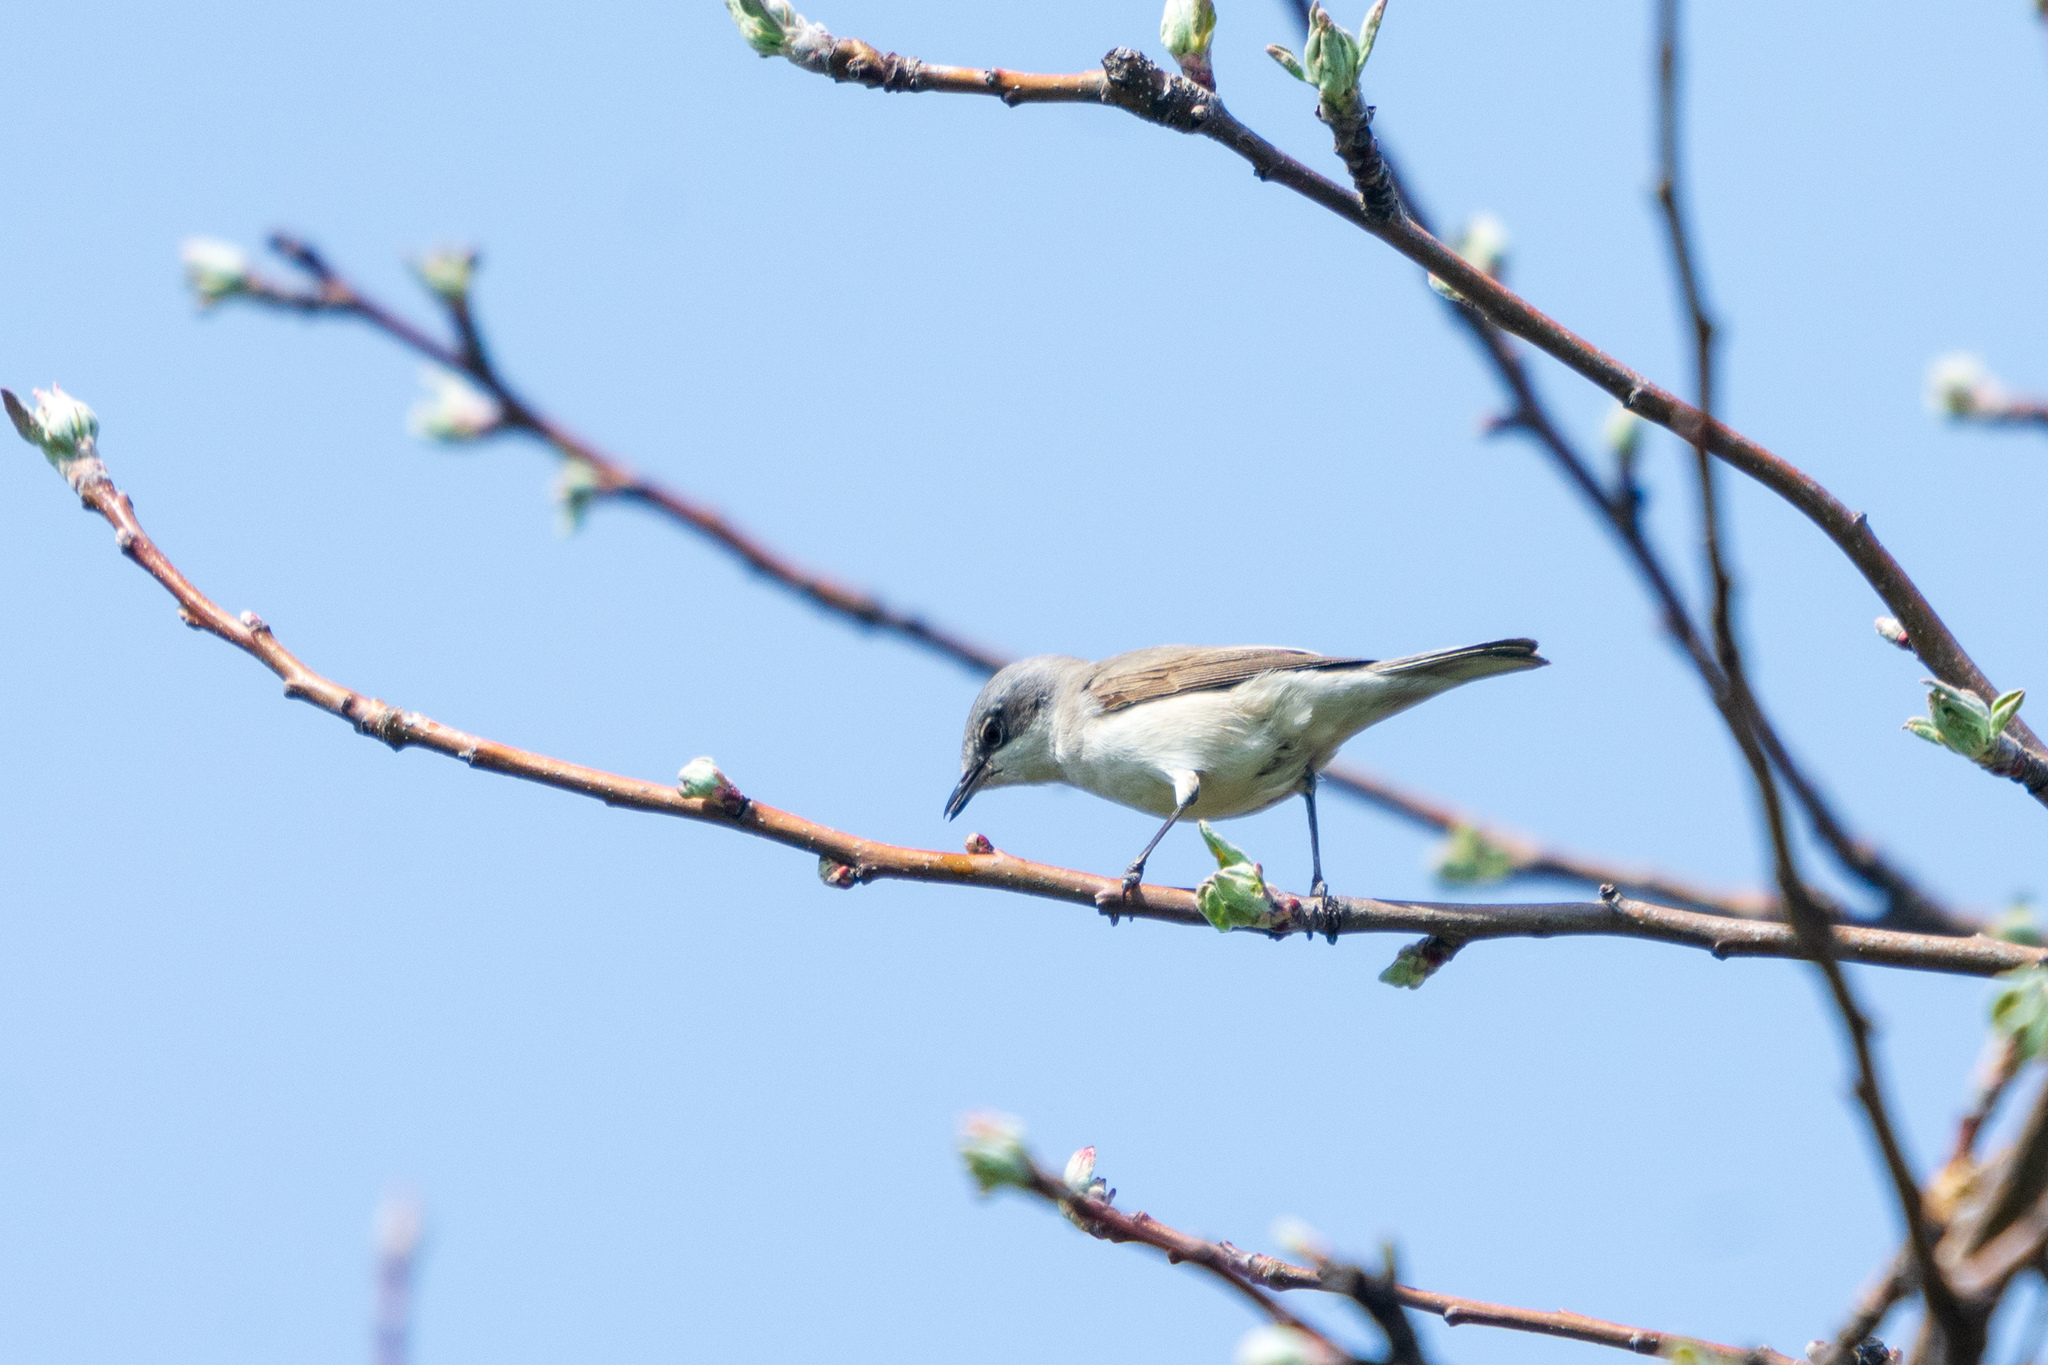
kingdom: Animalia
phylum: Chordata
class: Aves
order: Passeriformes
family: Sylviidae
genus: Sylvia
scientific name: Sylvia curruca
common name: Lesser whitethroat
